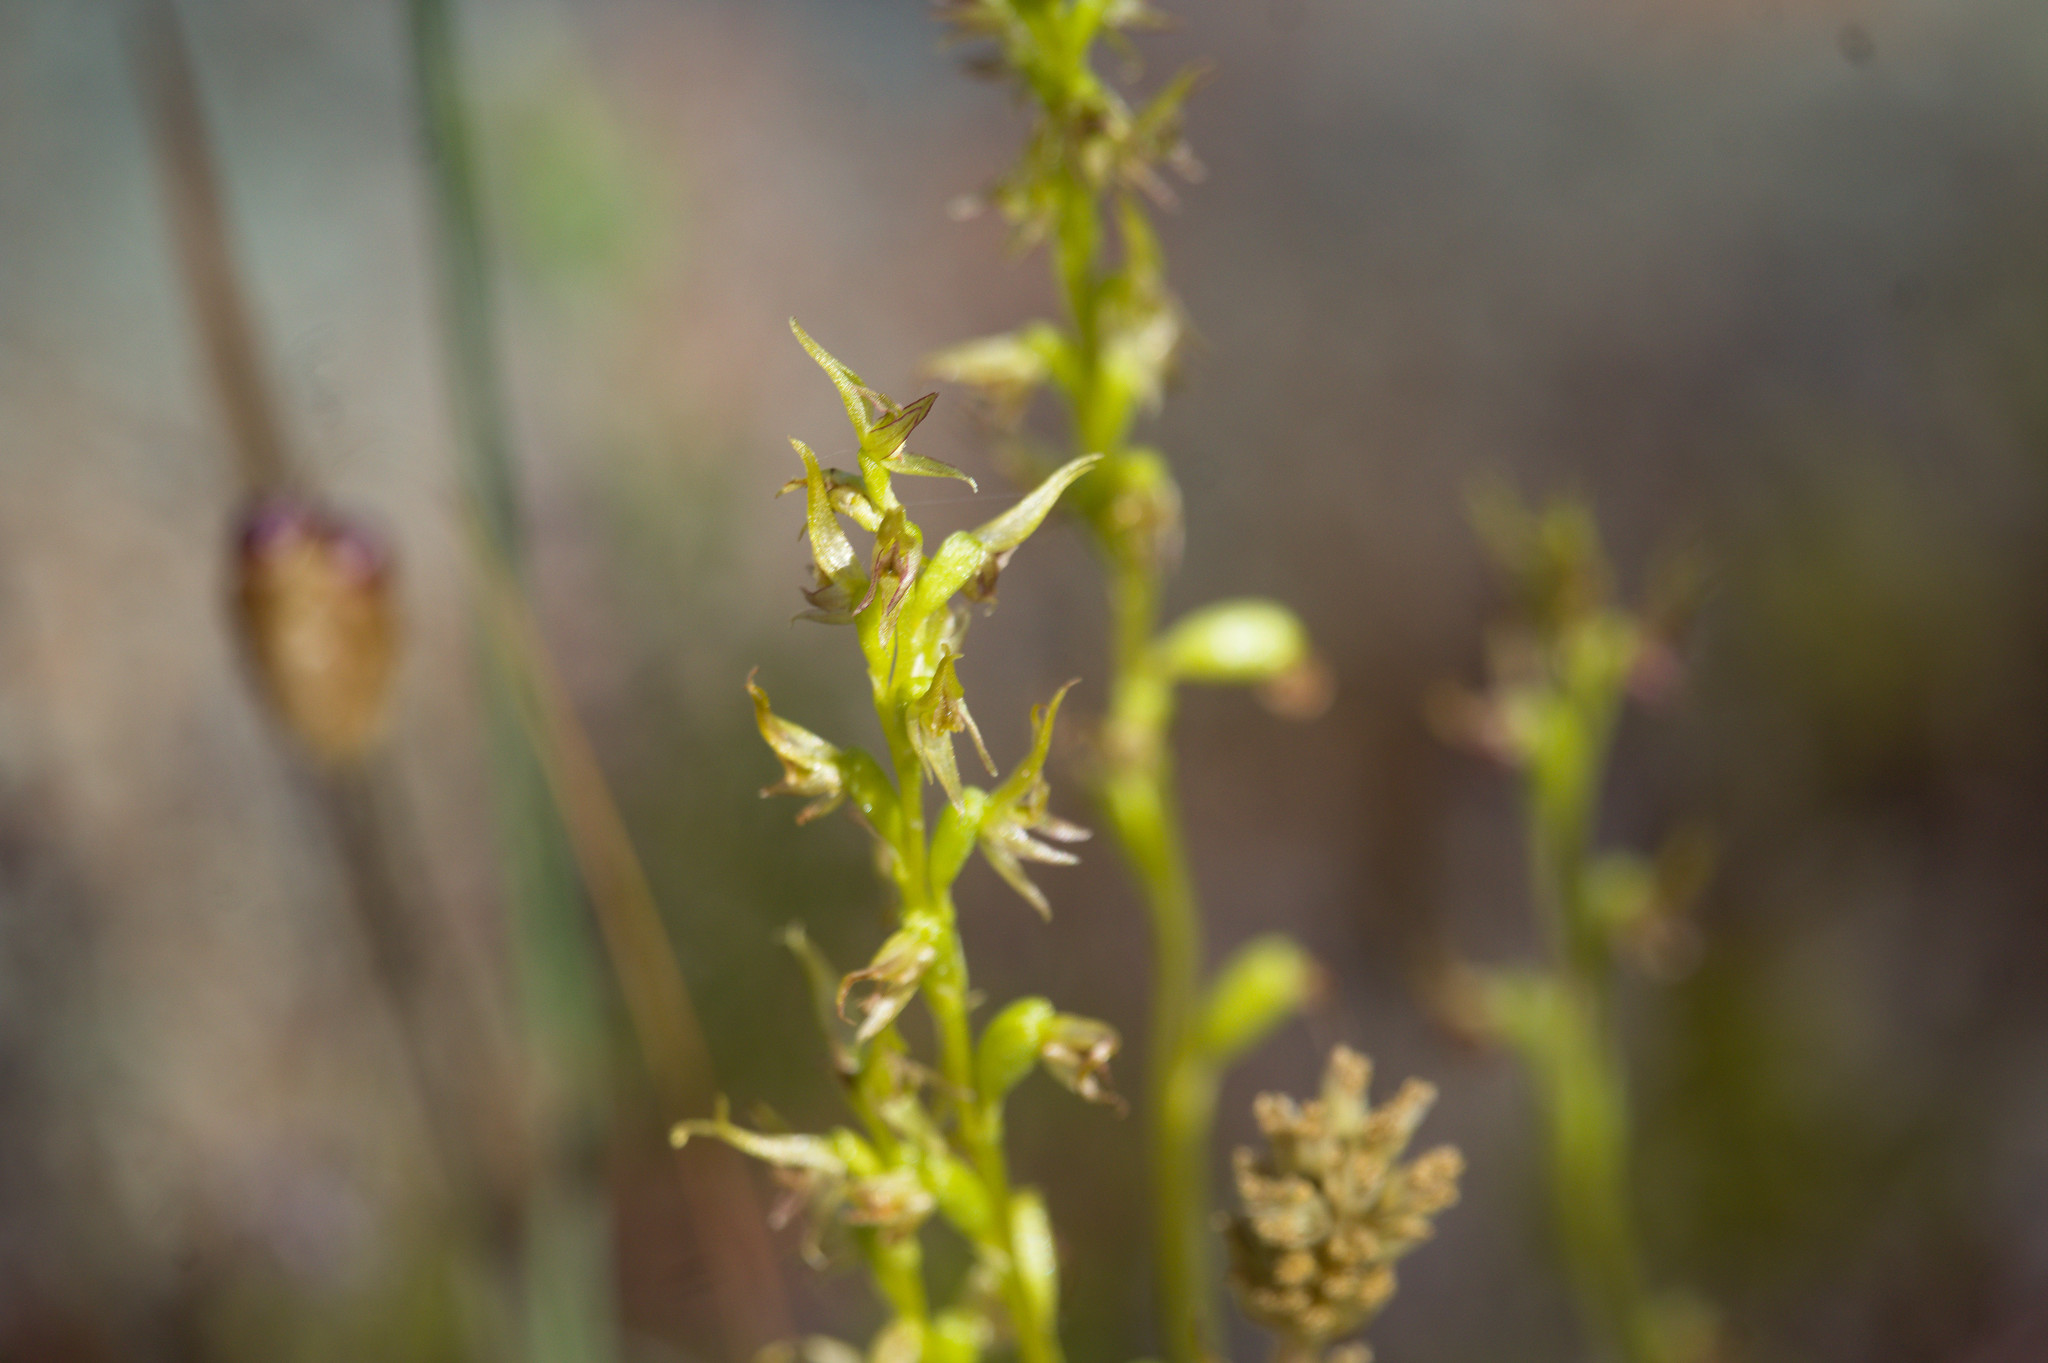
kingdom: Plantae
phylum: Tracheophyta
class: Liliopsida
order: Asparagales
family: Orchidaceae
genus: Prasophyllum
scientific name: Prasophyllum gracile
